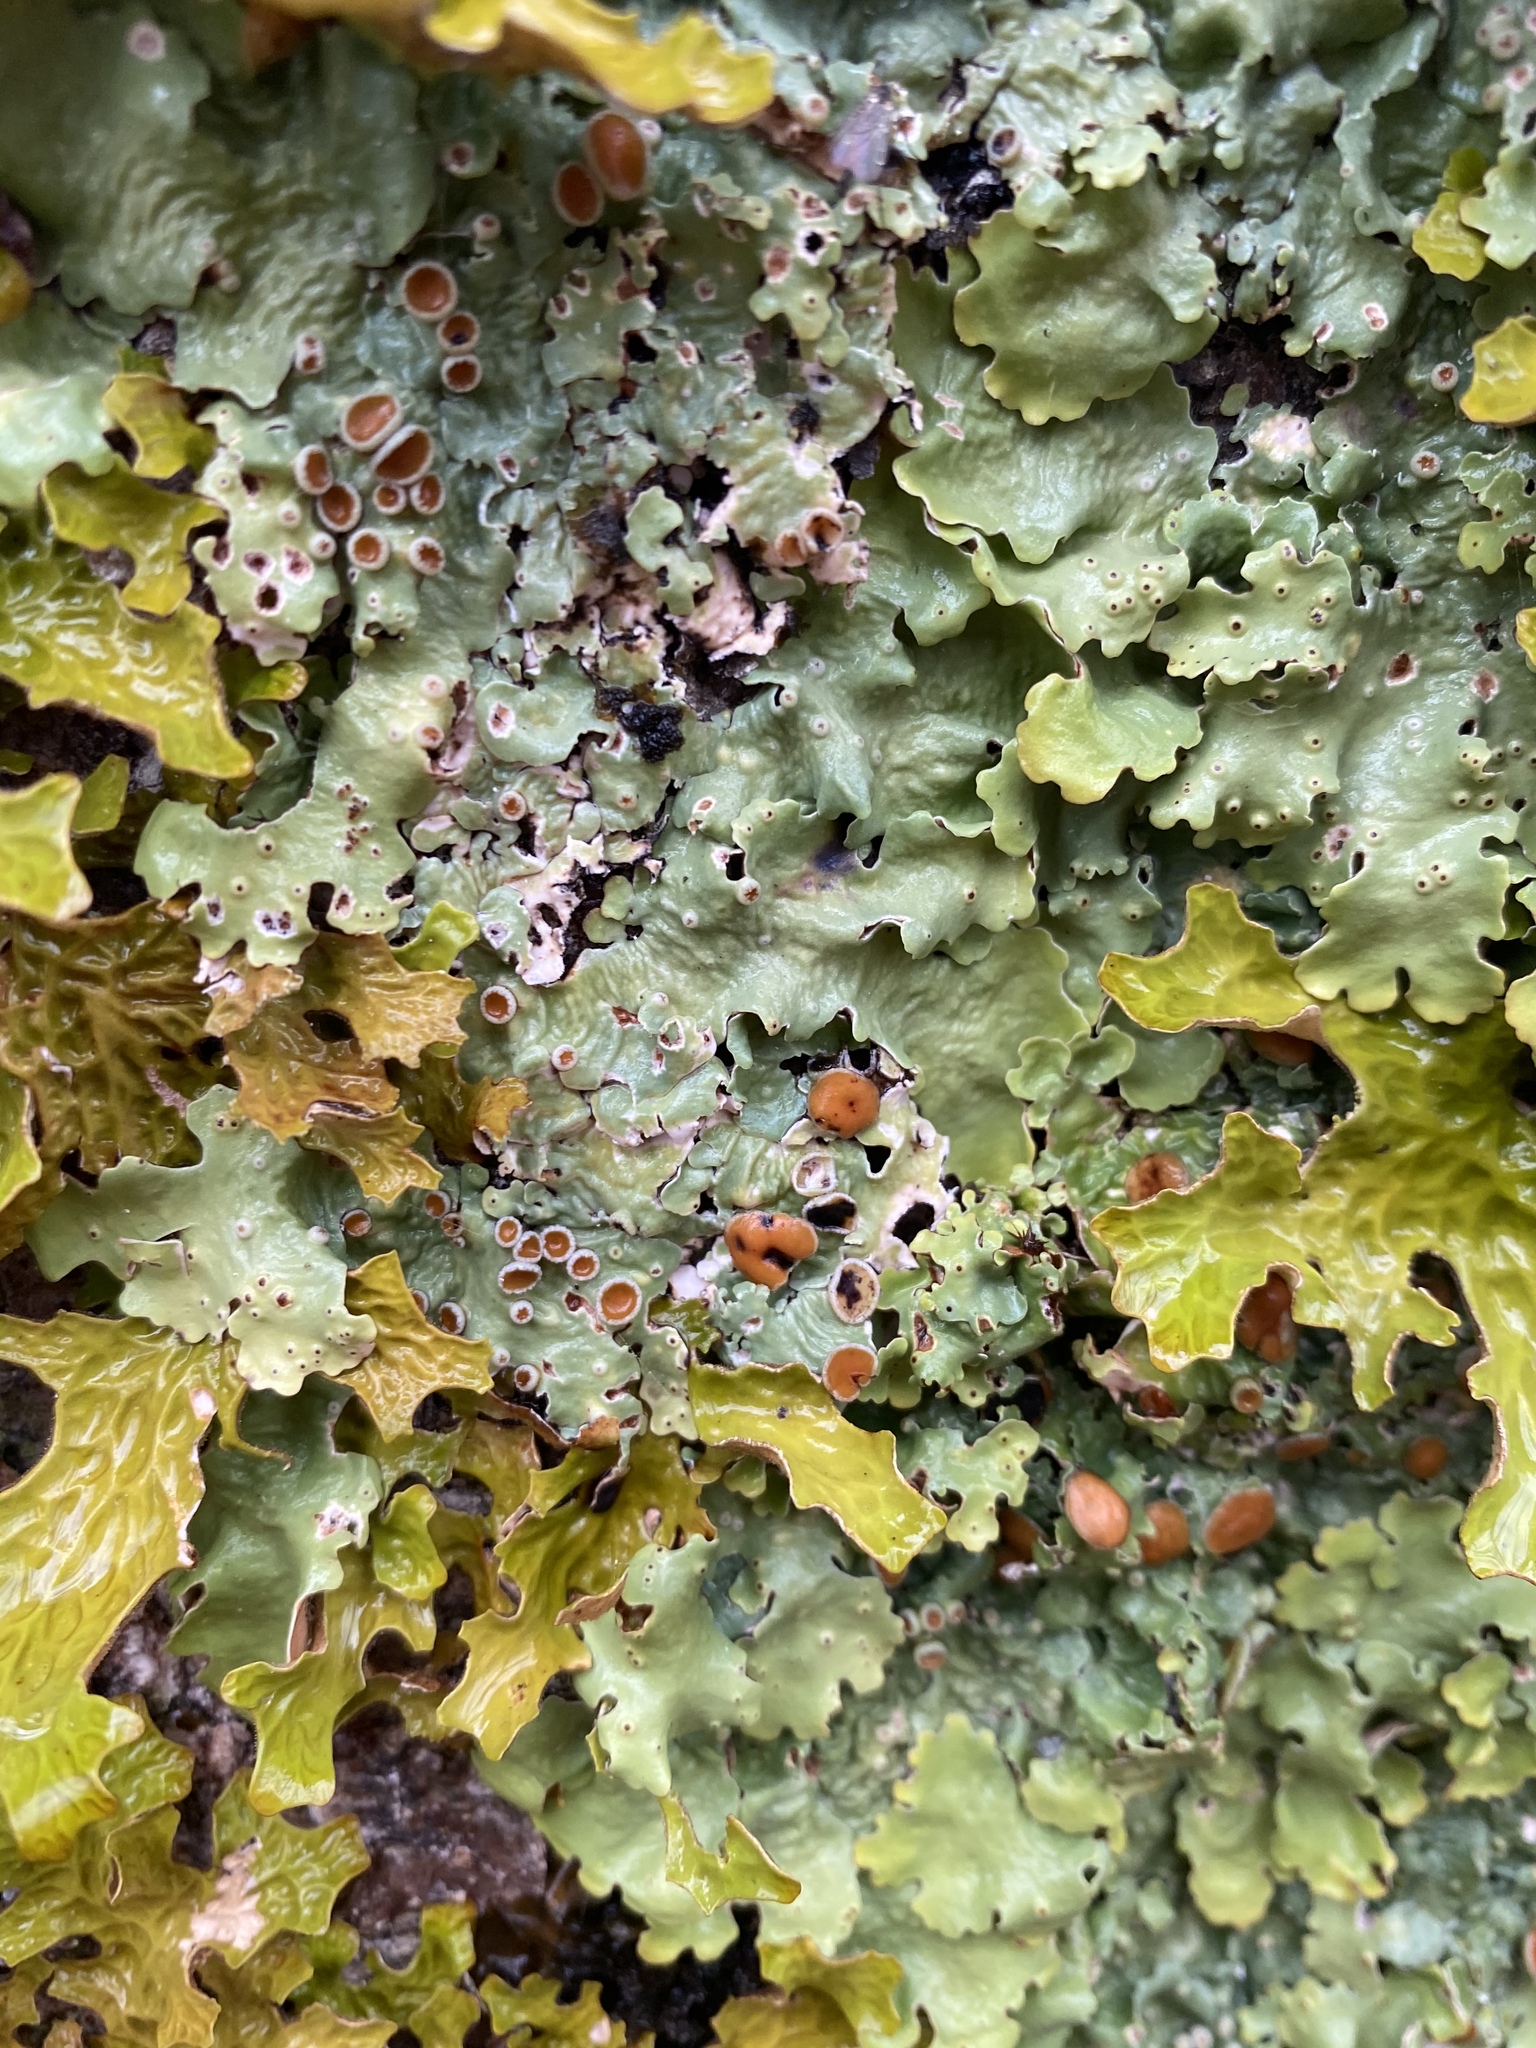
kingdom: Fungi
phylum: Ascomycota
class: Lecanoromycetes
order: Peltigerales
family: Lobariaceae
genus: Ricasolia
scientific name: Ricasolia quercizans
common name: Smooth lungwort
